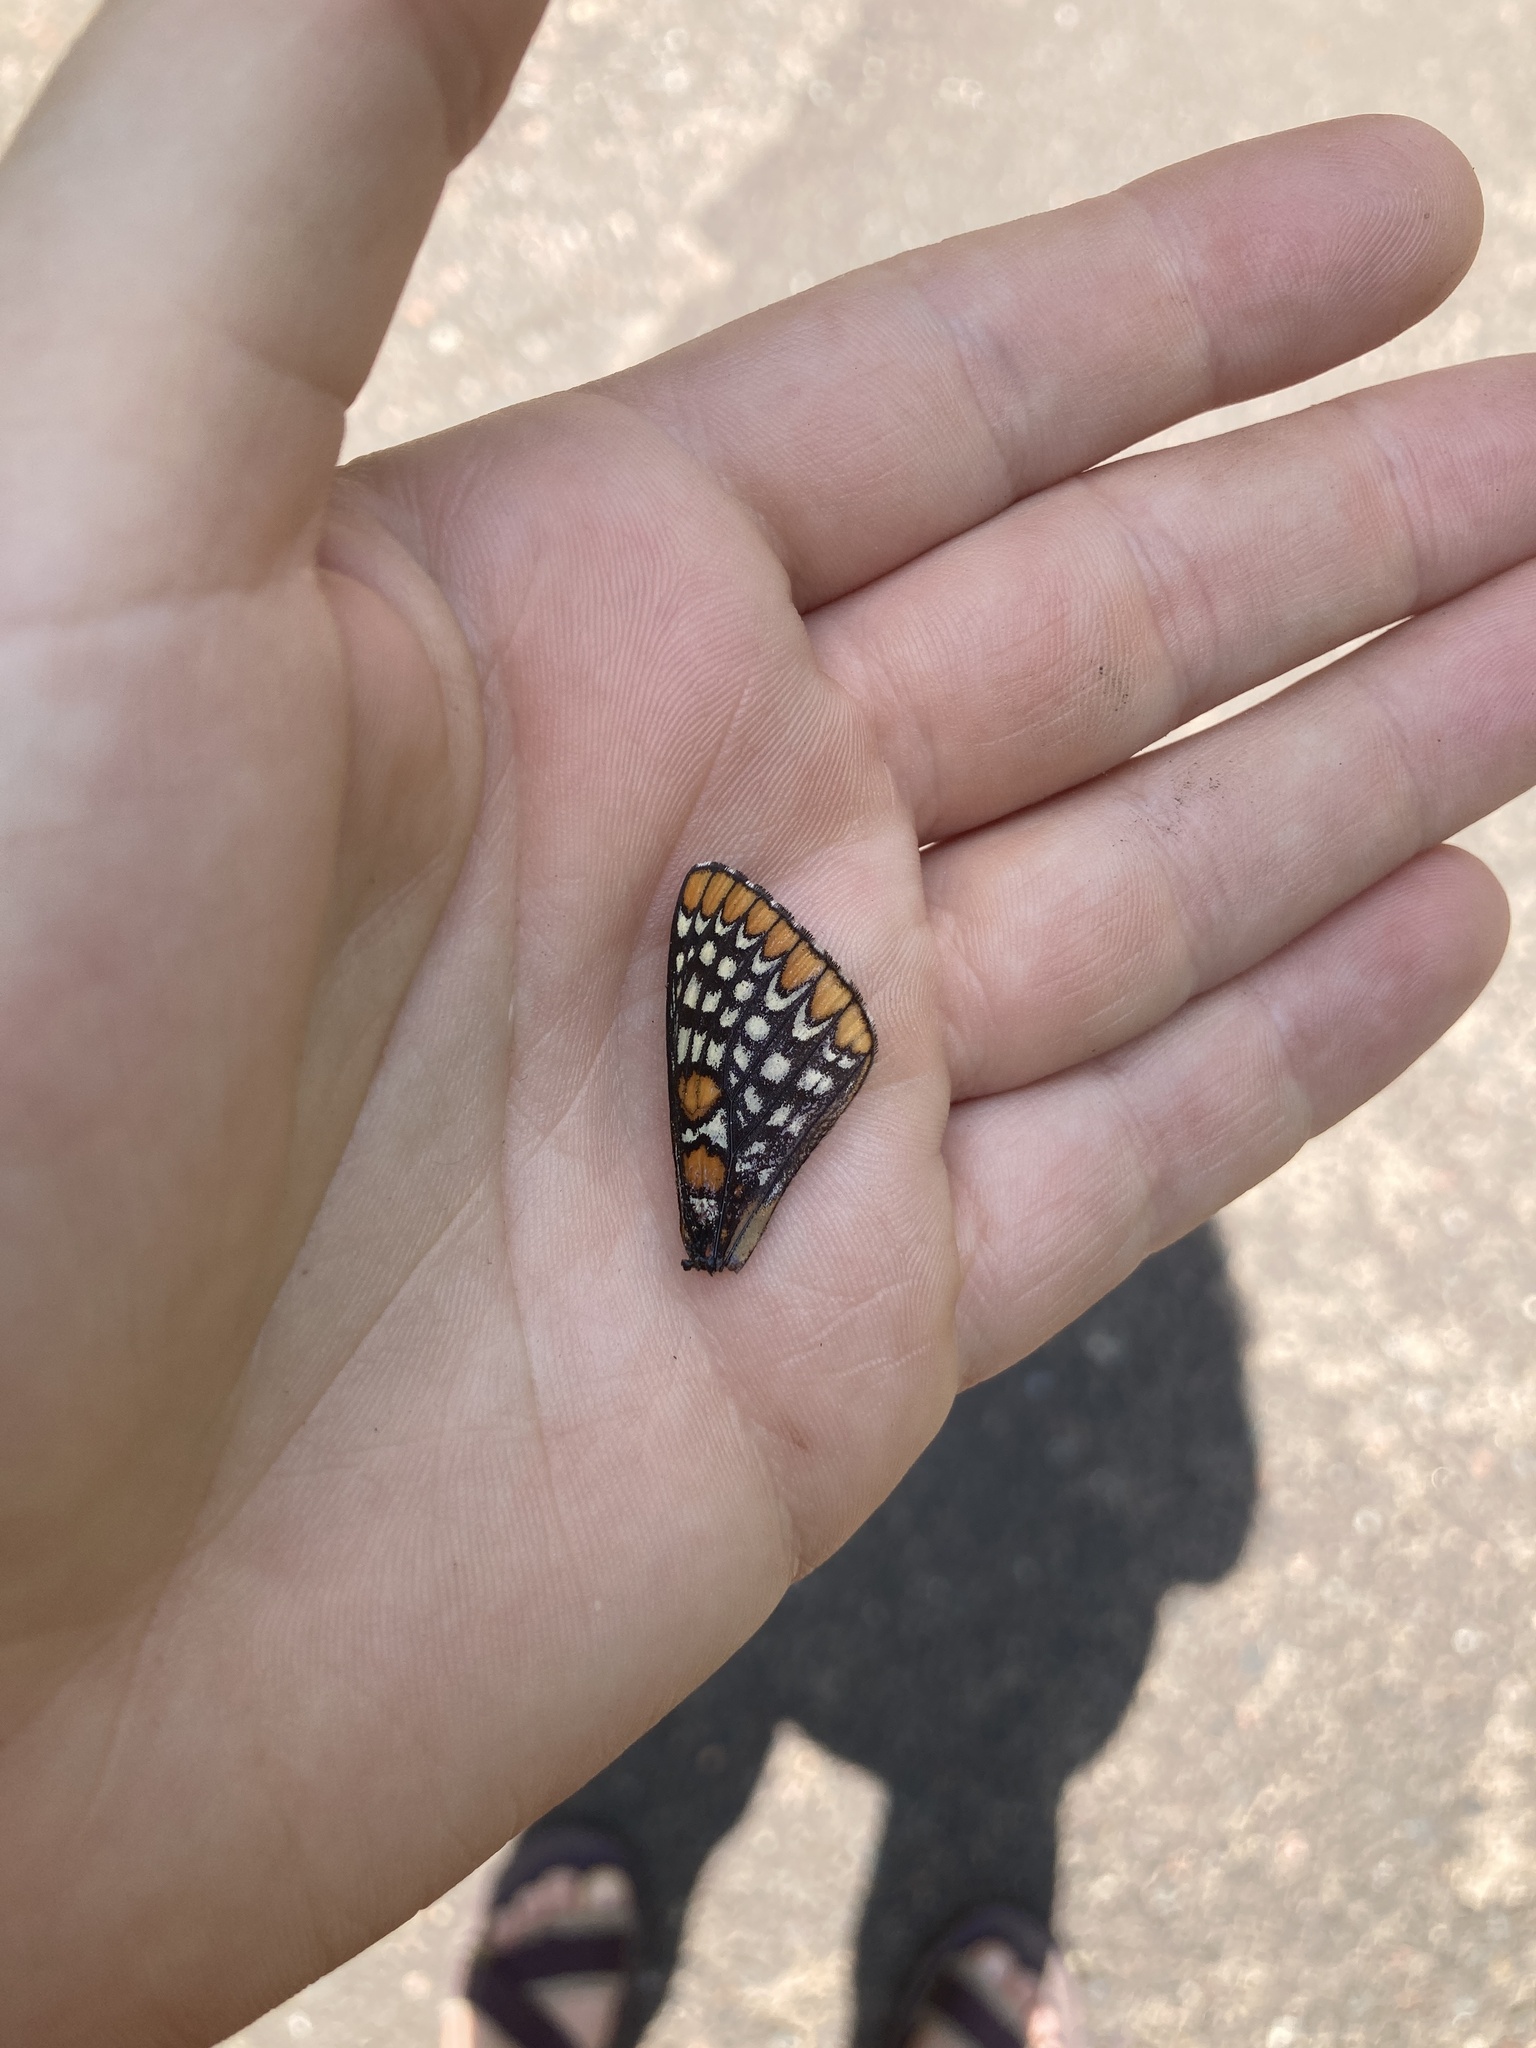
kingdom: Animalia
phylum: Arthropoda
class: Insecta
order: Lepidoptera
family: Nymphalidae
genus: Euphydryas
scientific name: Euphydryas phaeton
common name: Baltimore checkerspot
